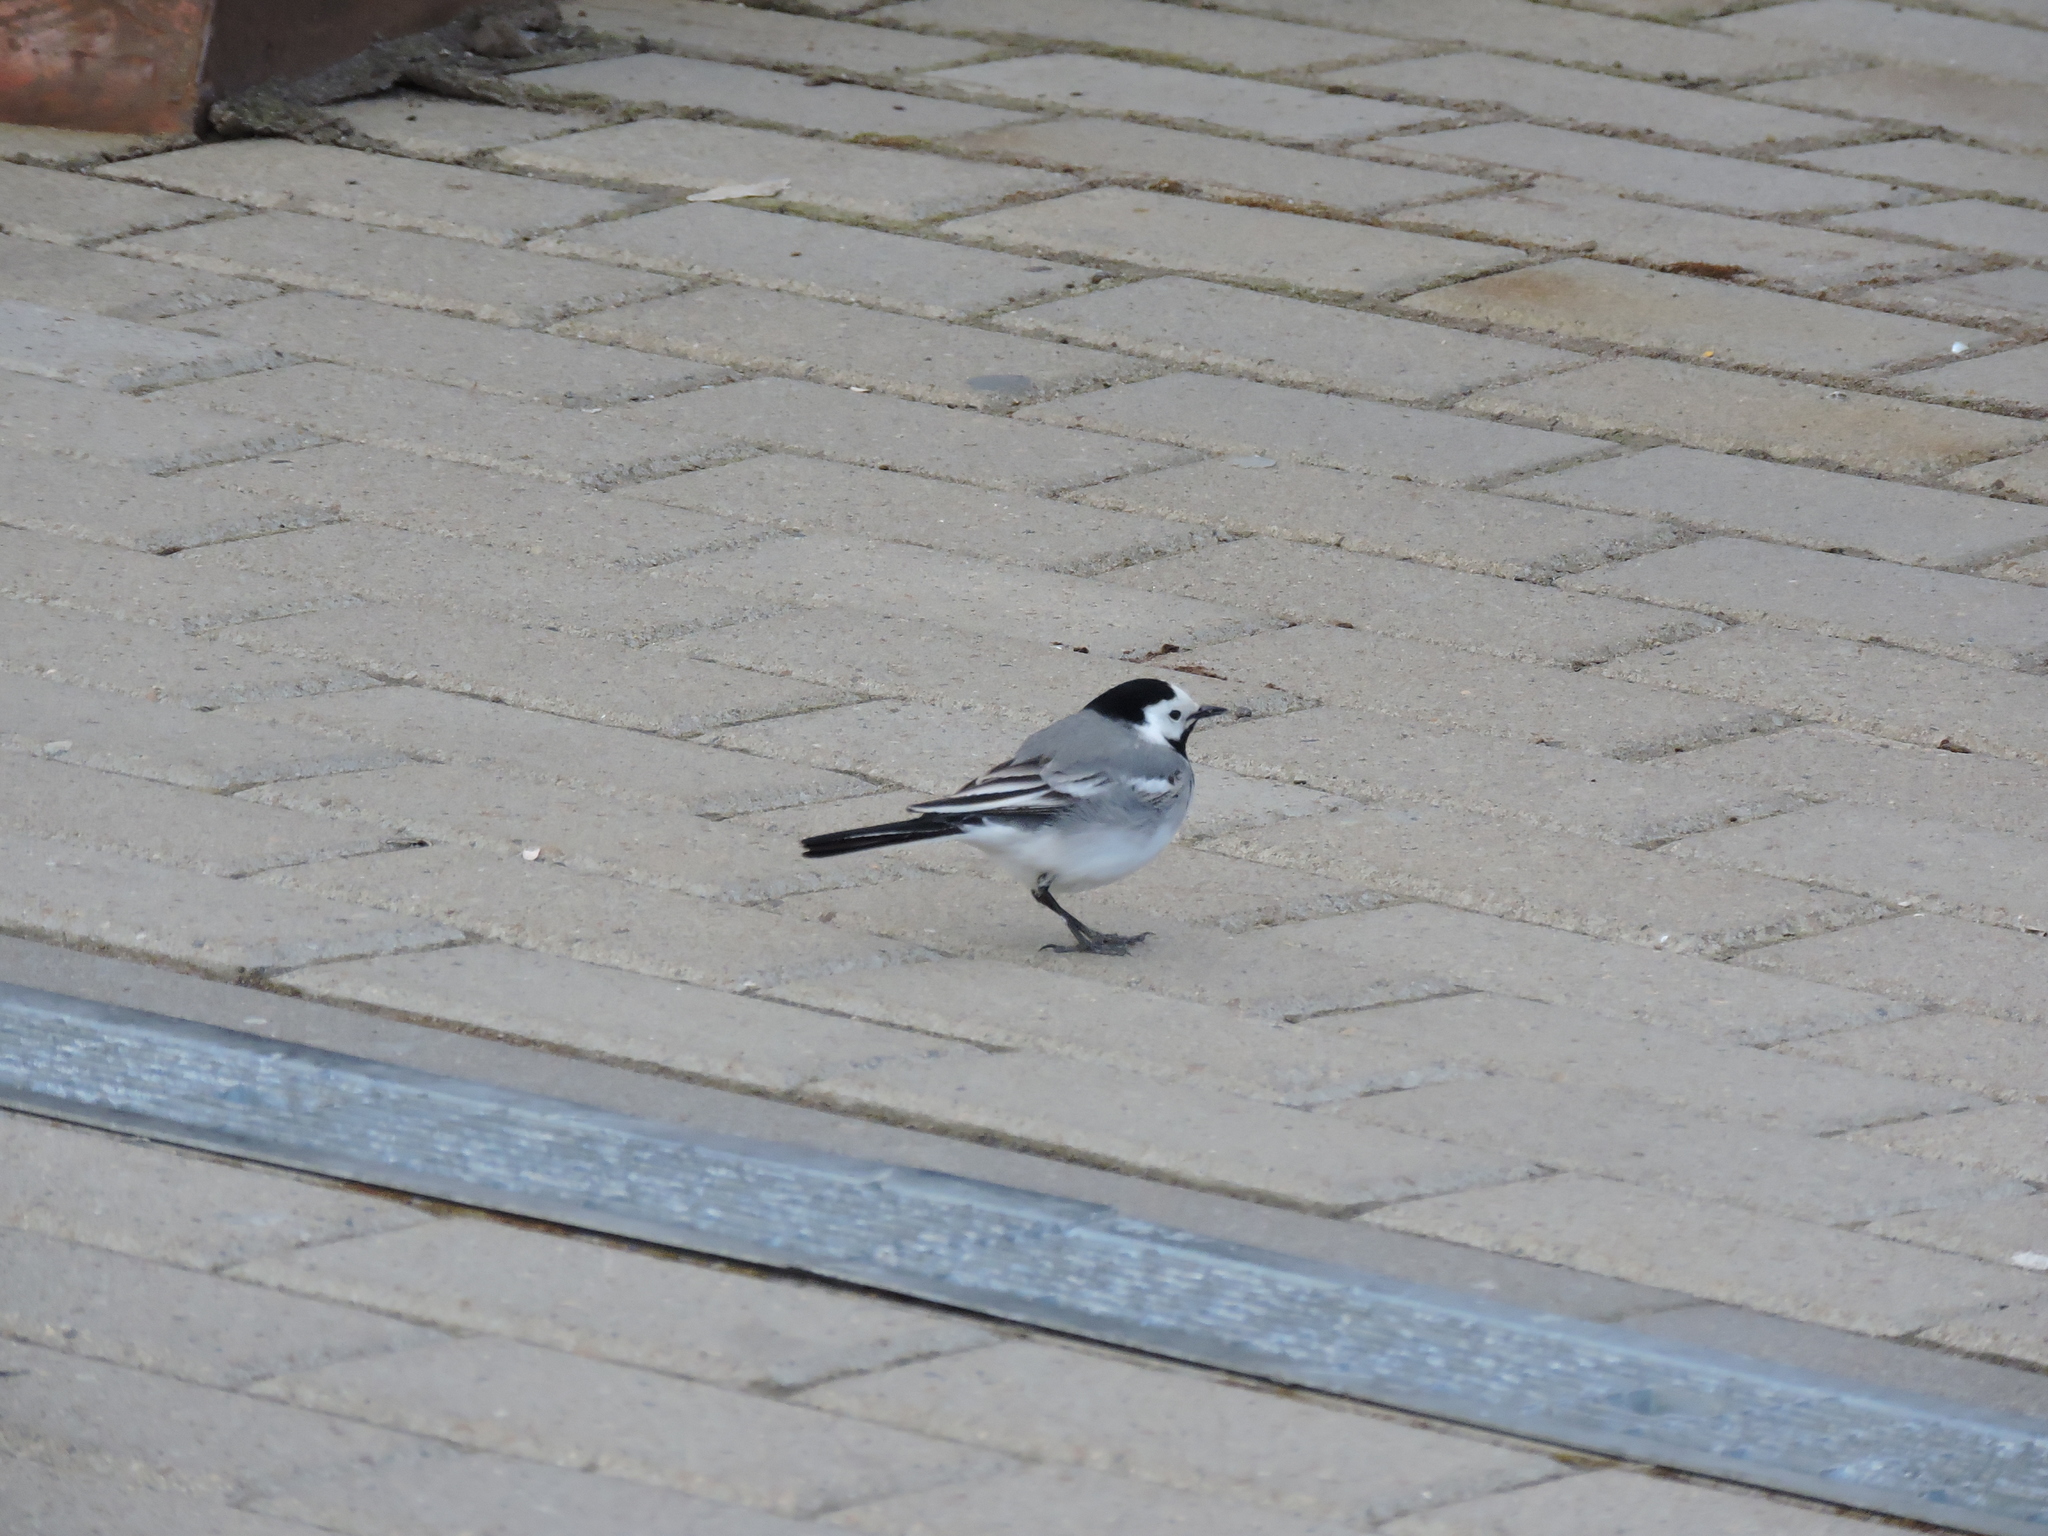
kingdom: Animalia
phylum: Chordata
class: Aves
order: Passeriformes
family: Motacillidae
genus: Motacilla
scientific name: Motacilla alba
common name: White wagtail
